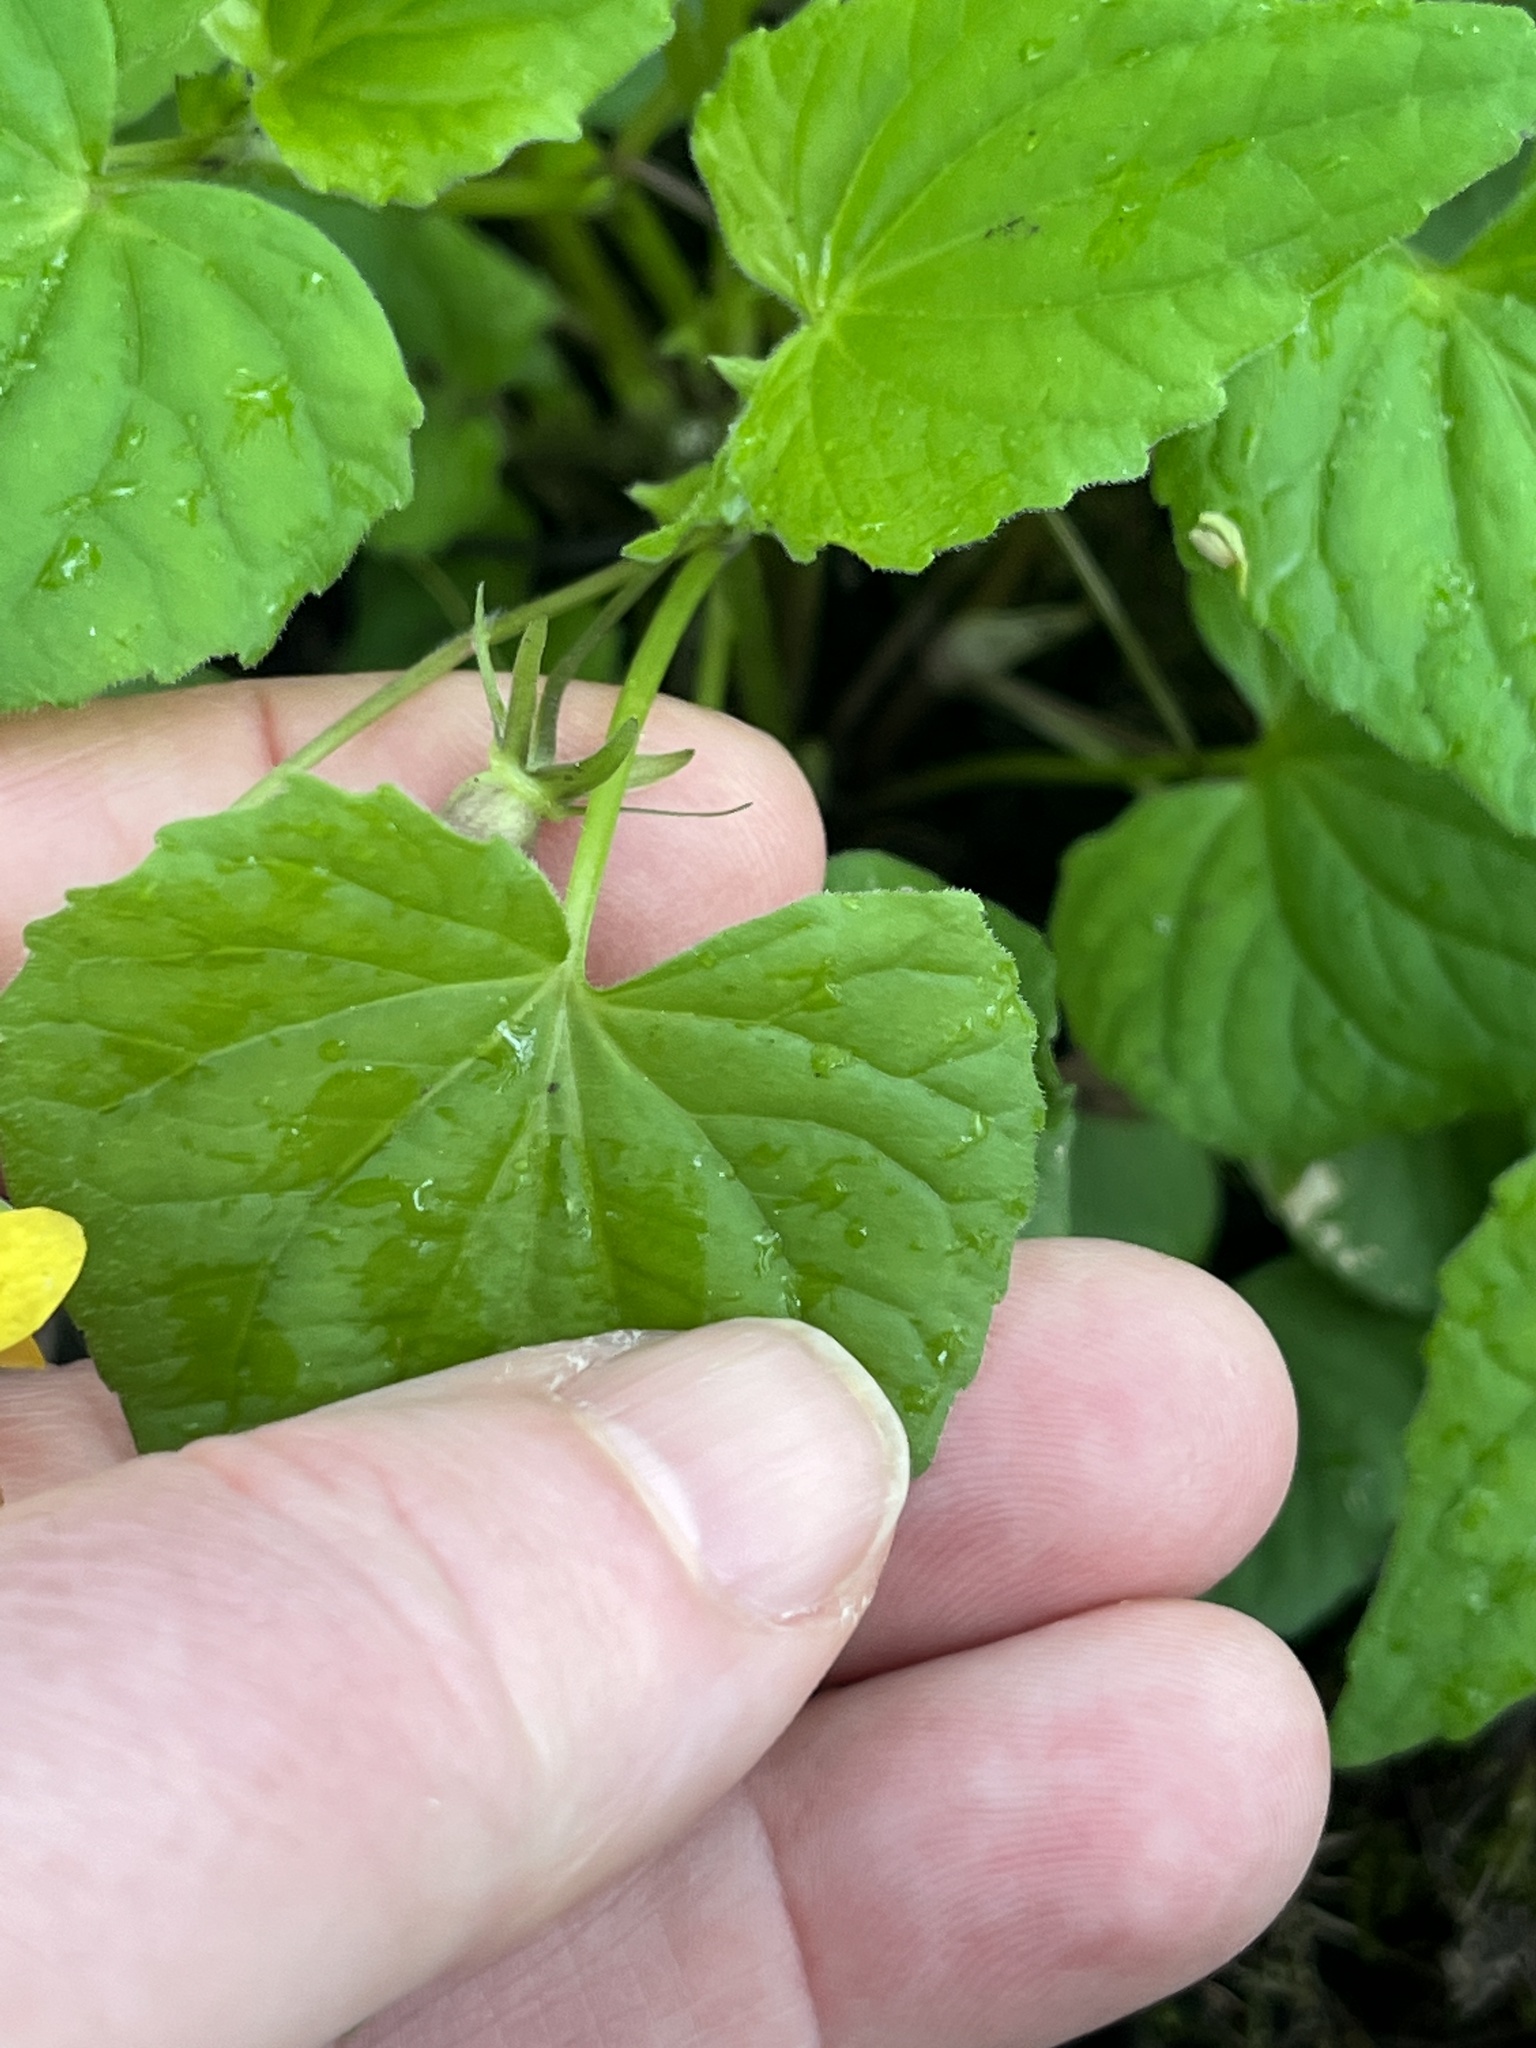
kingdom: Plantae
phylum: Tracheophyta
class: Magnoliopsida
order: Malpighiales
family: Violaceae
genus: Viola
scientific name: Viola eriocarpa
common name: Smooth yellow violet
